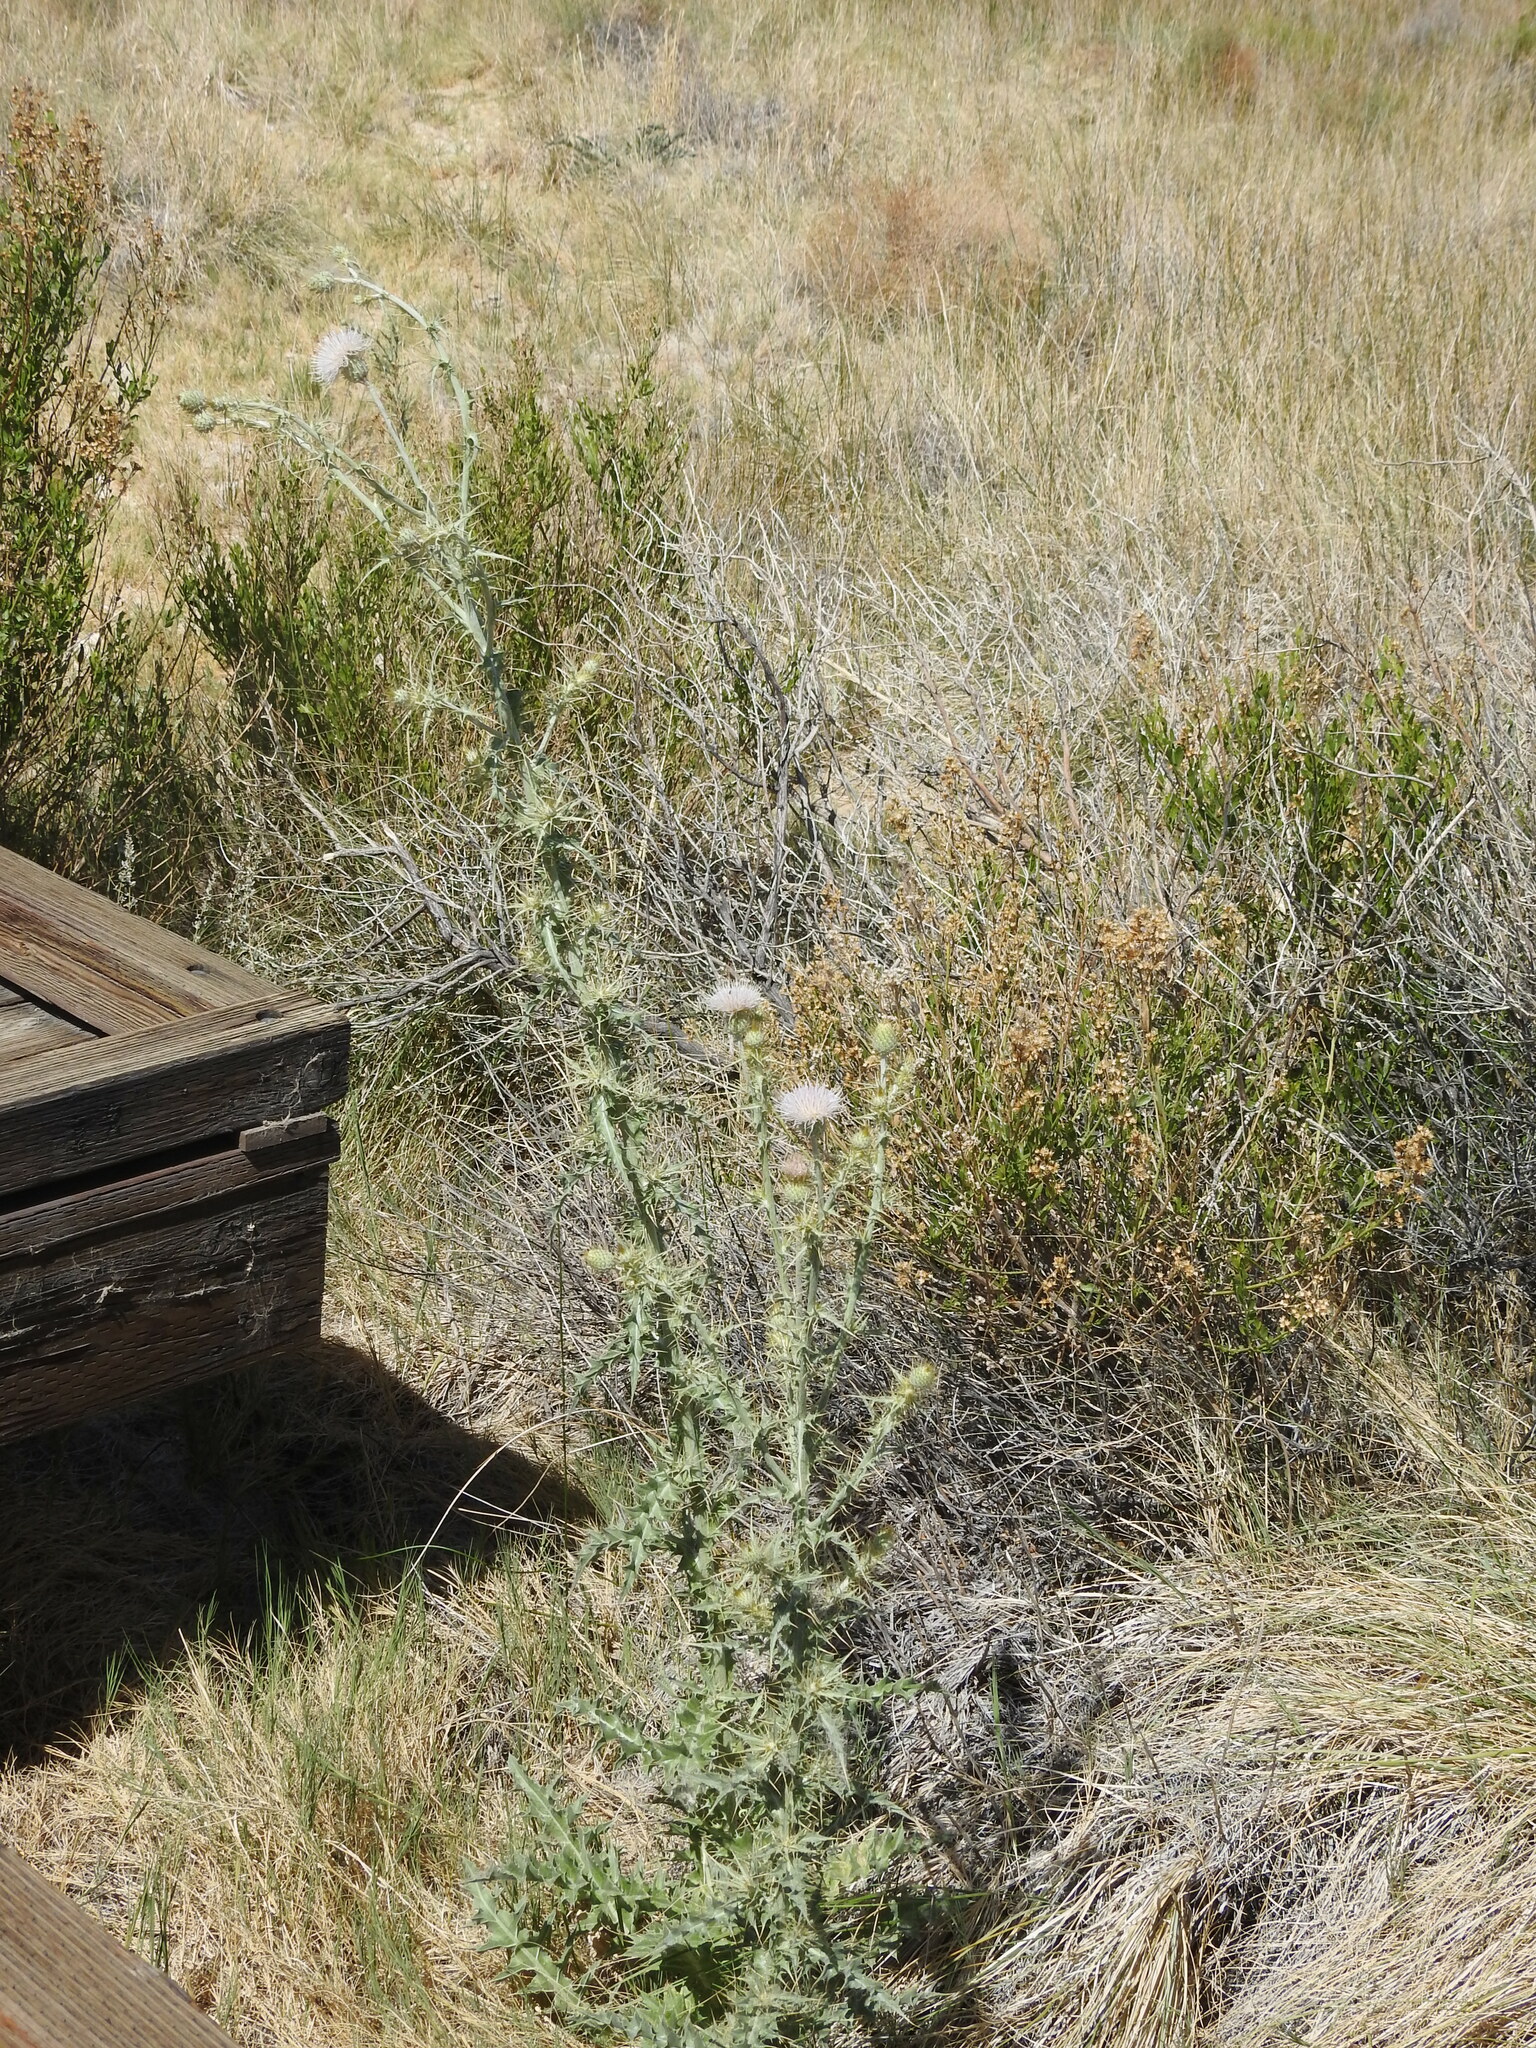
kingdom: Plantae
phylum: Tracheophyta
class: Magnoliopsida
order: Asterales
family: Asteraceae
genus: Cirsium
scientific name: Cirsium mohavense
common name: Mojave thistle
